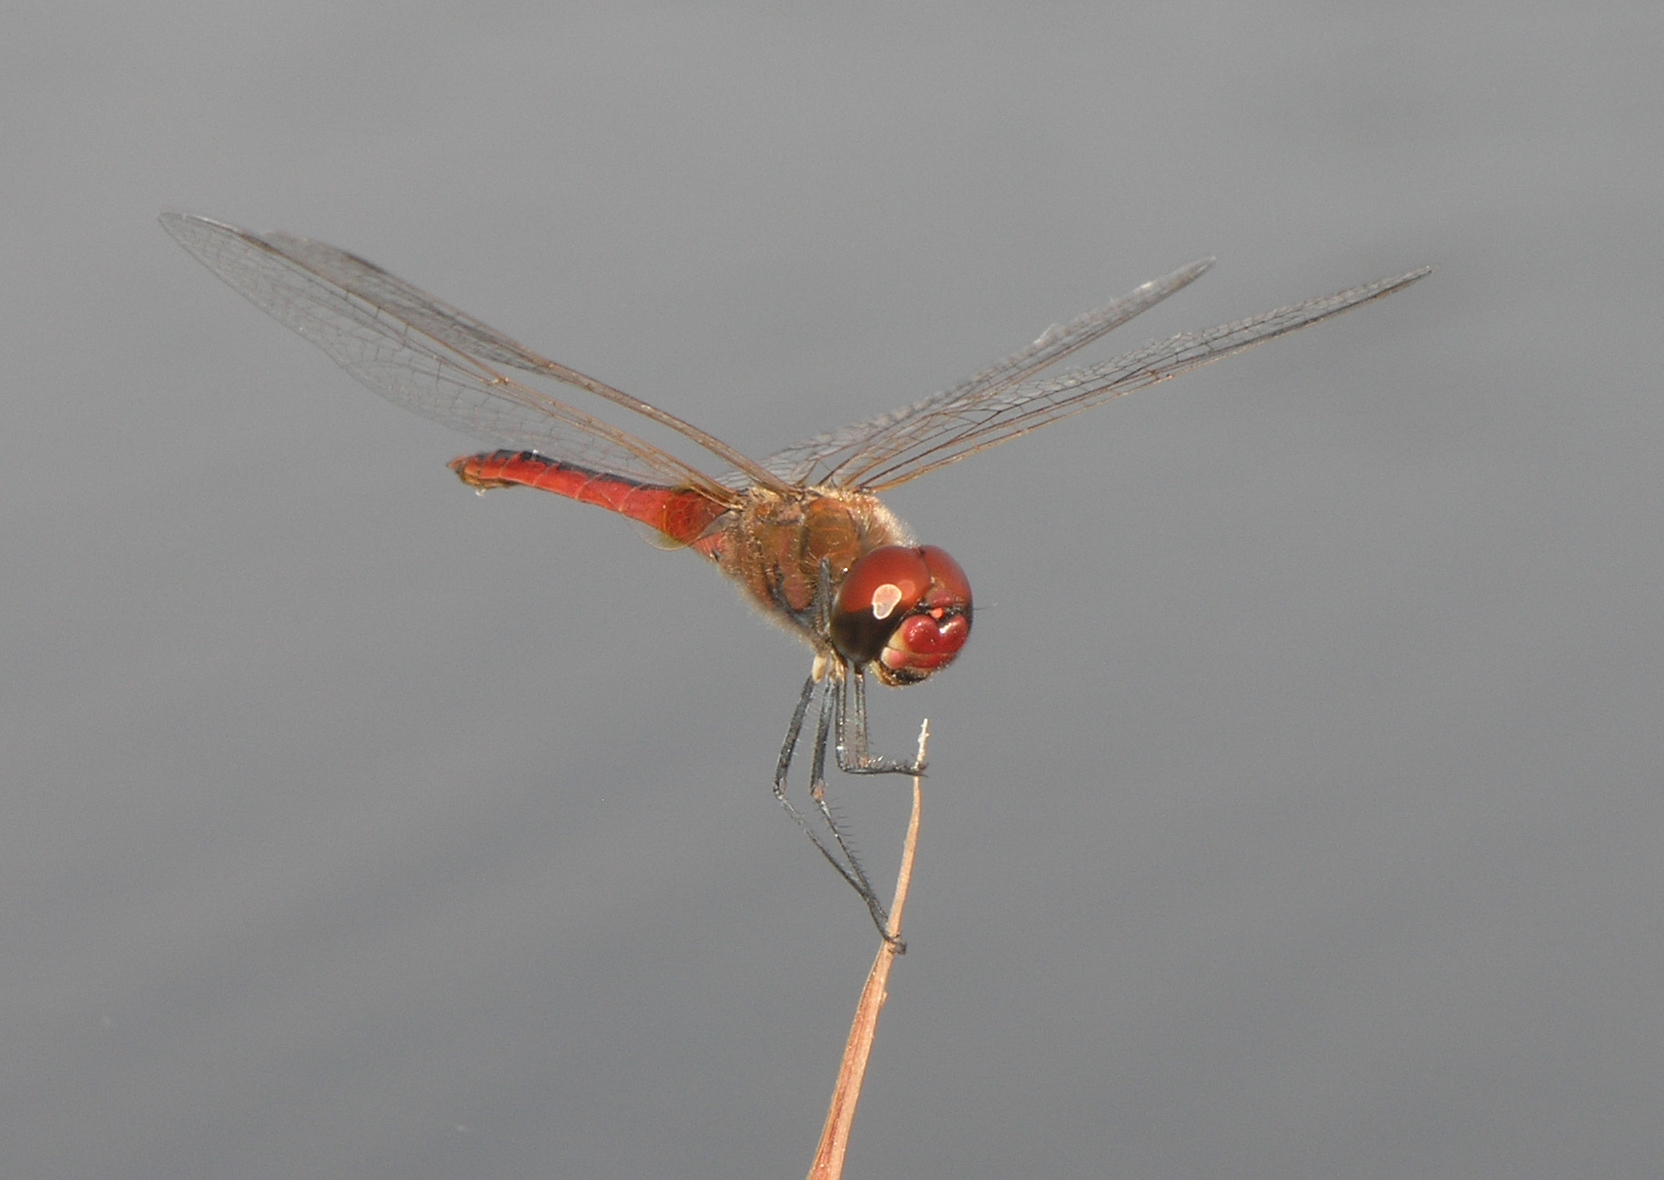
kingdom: Animalia
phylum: Arthropoda
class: Insecta
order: Odonata
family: Libellulidae
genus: Macrodiplax
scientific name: Macrodiplax cora
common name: Coastal glider
